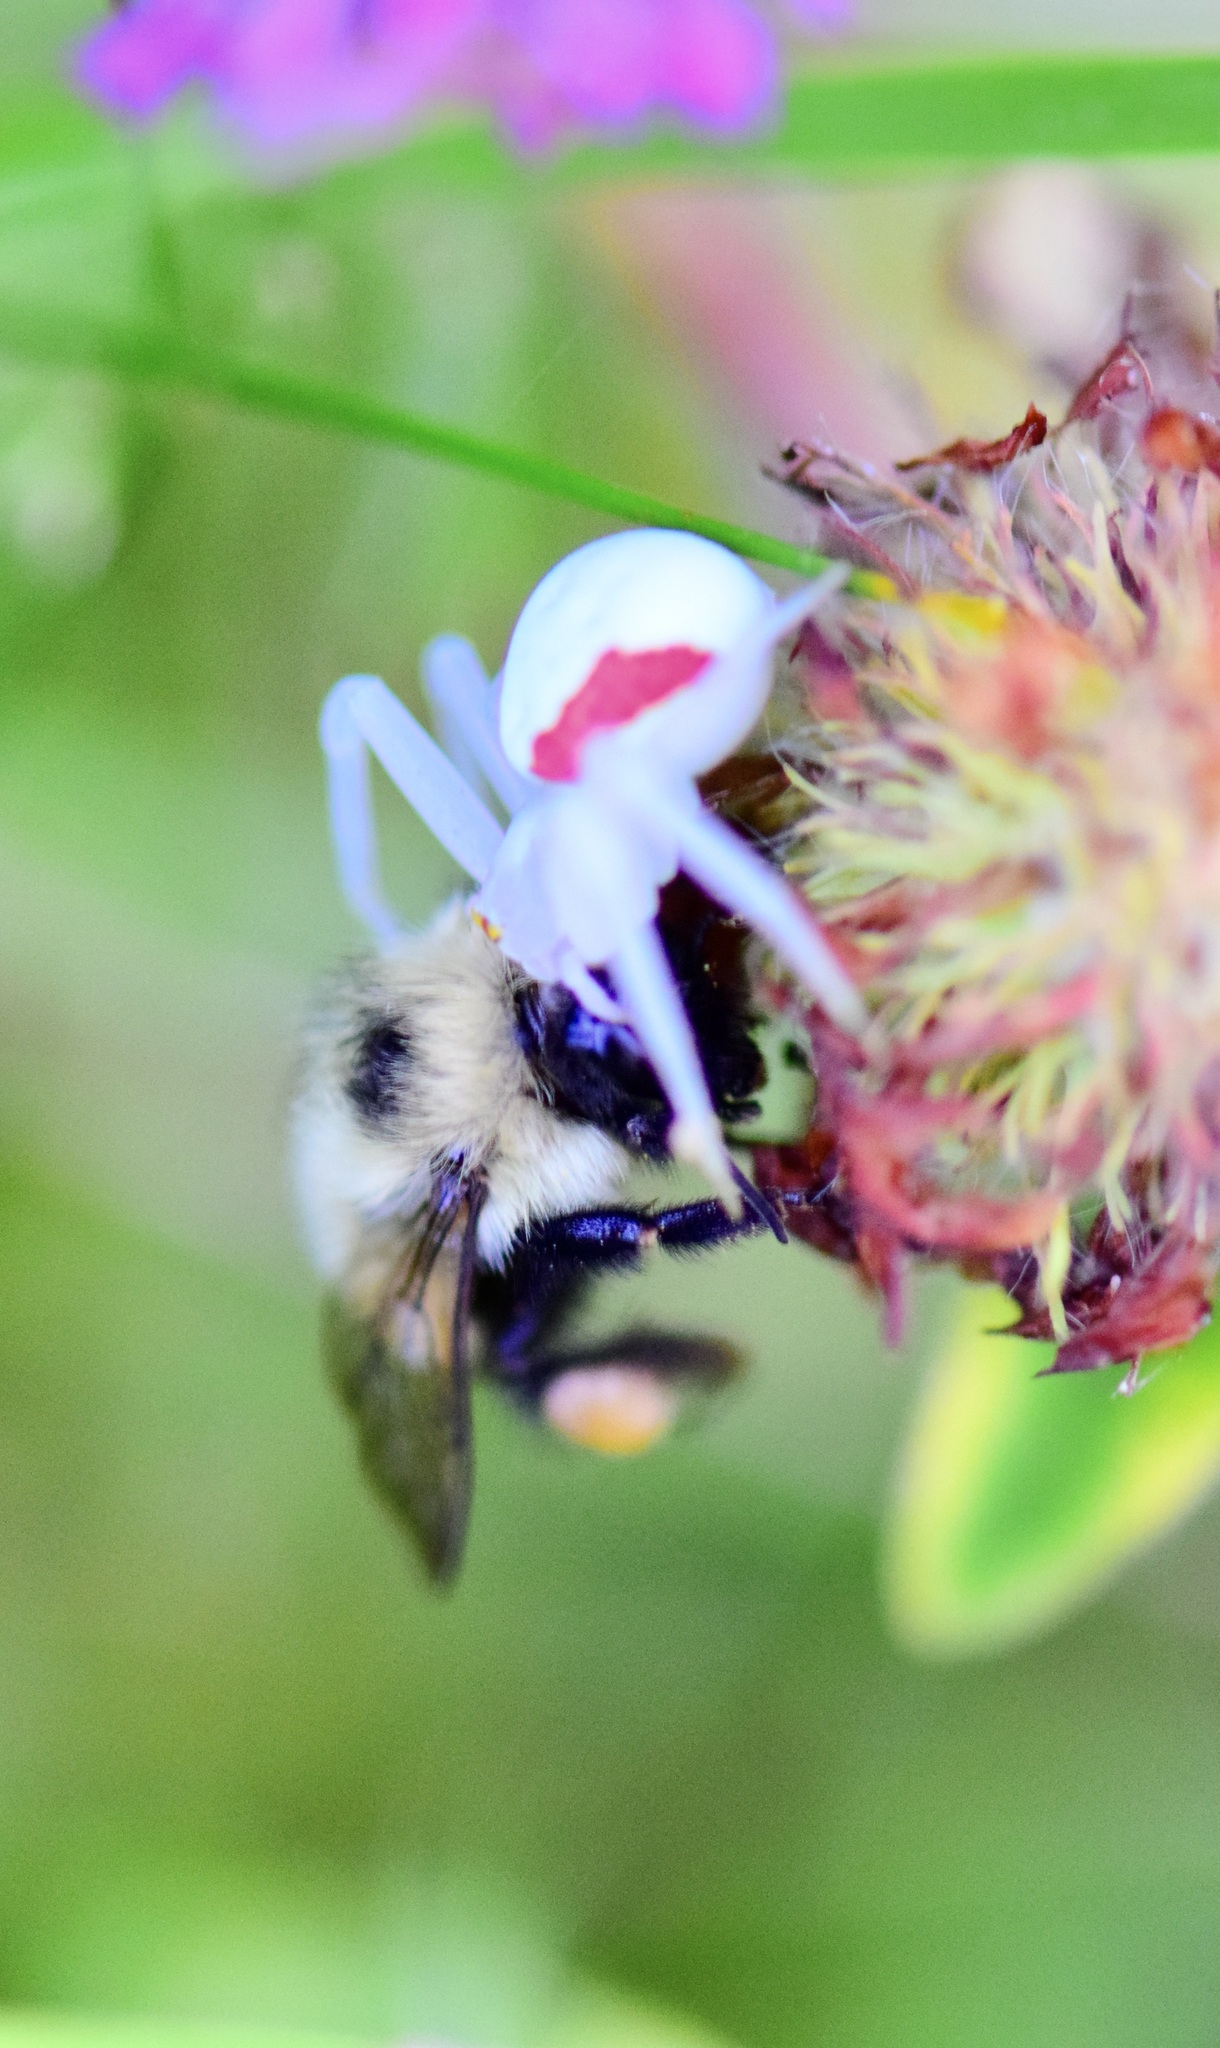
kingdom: Animalia
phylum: Arthropoda
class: Arachnida
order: Araneae
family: Thomisidae
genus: Misumena
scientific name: Misumena vatia
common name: Goldenrod crab spider
